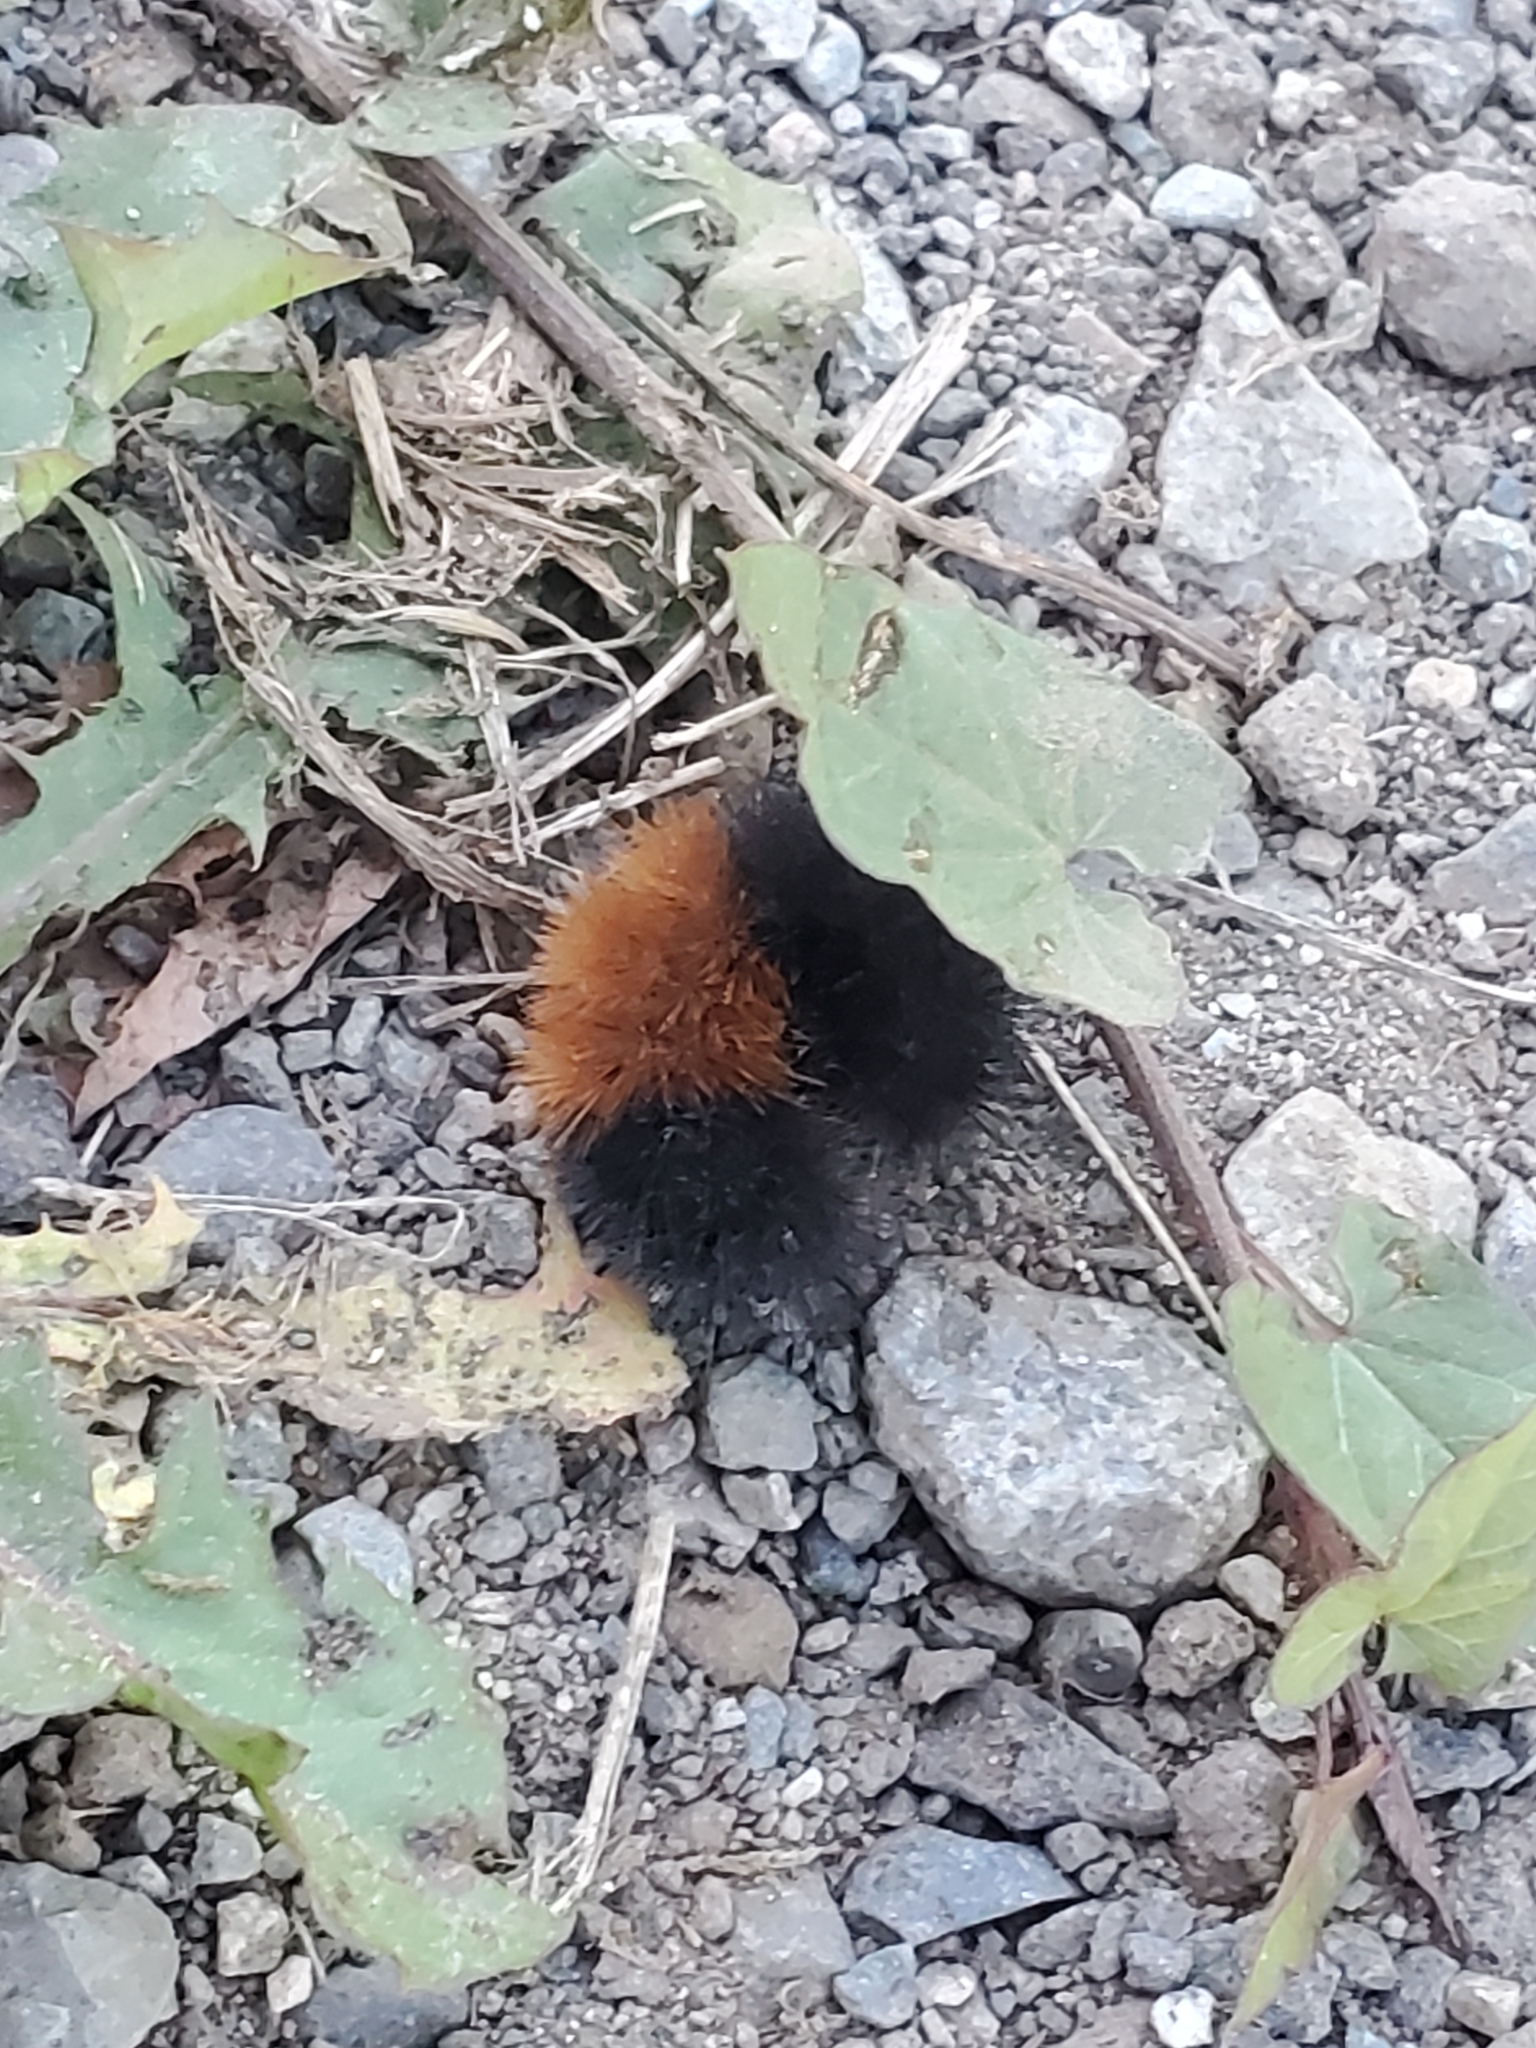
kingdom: Animalia
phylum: Arthropoda
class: Insecta
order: Lepidoptera
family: Erebidae
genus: Pyrrharctia
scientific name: Pyrrharctia isabella
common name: Isabella tiger moth
